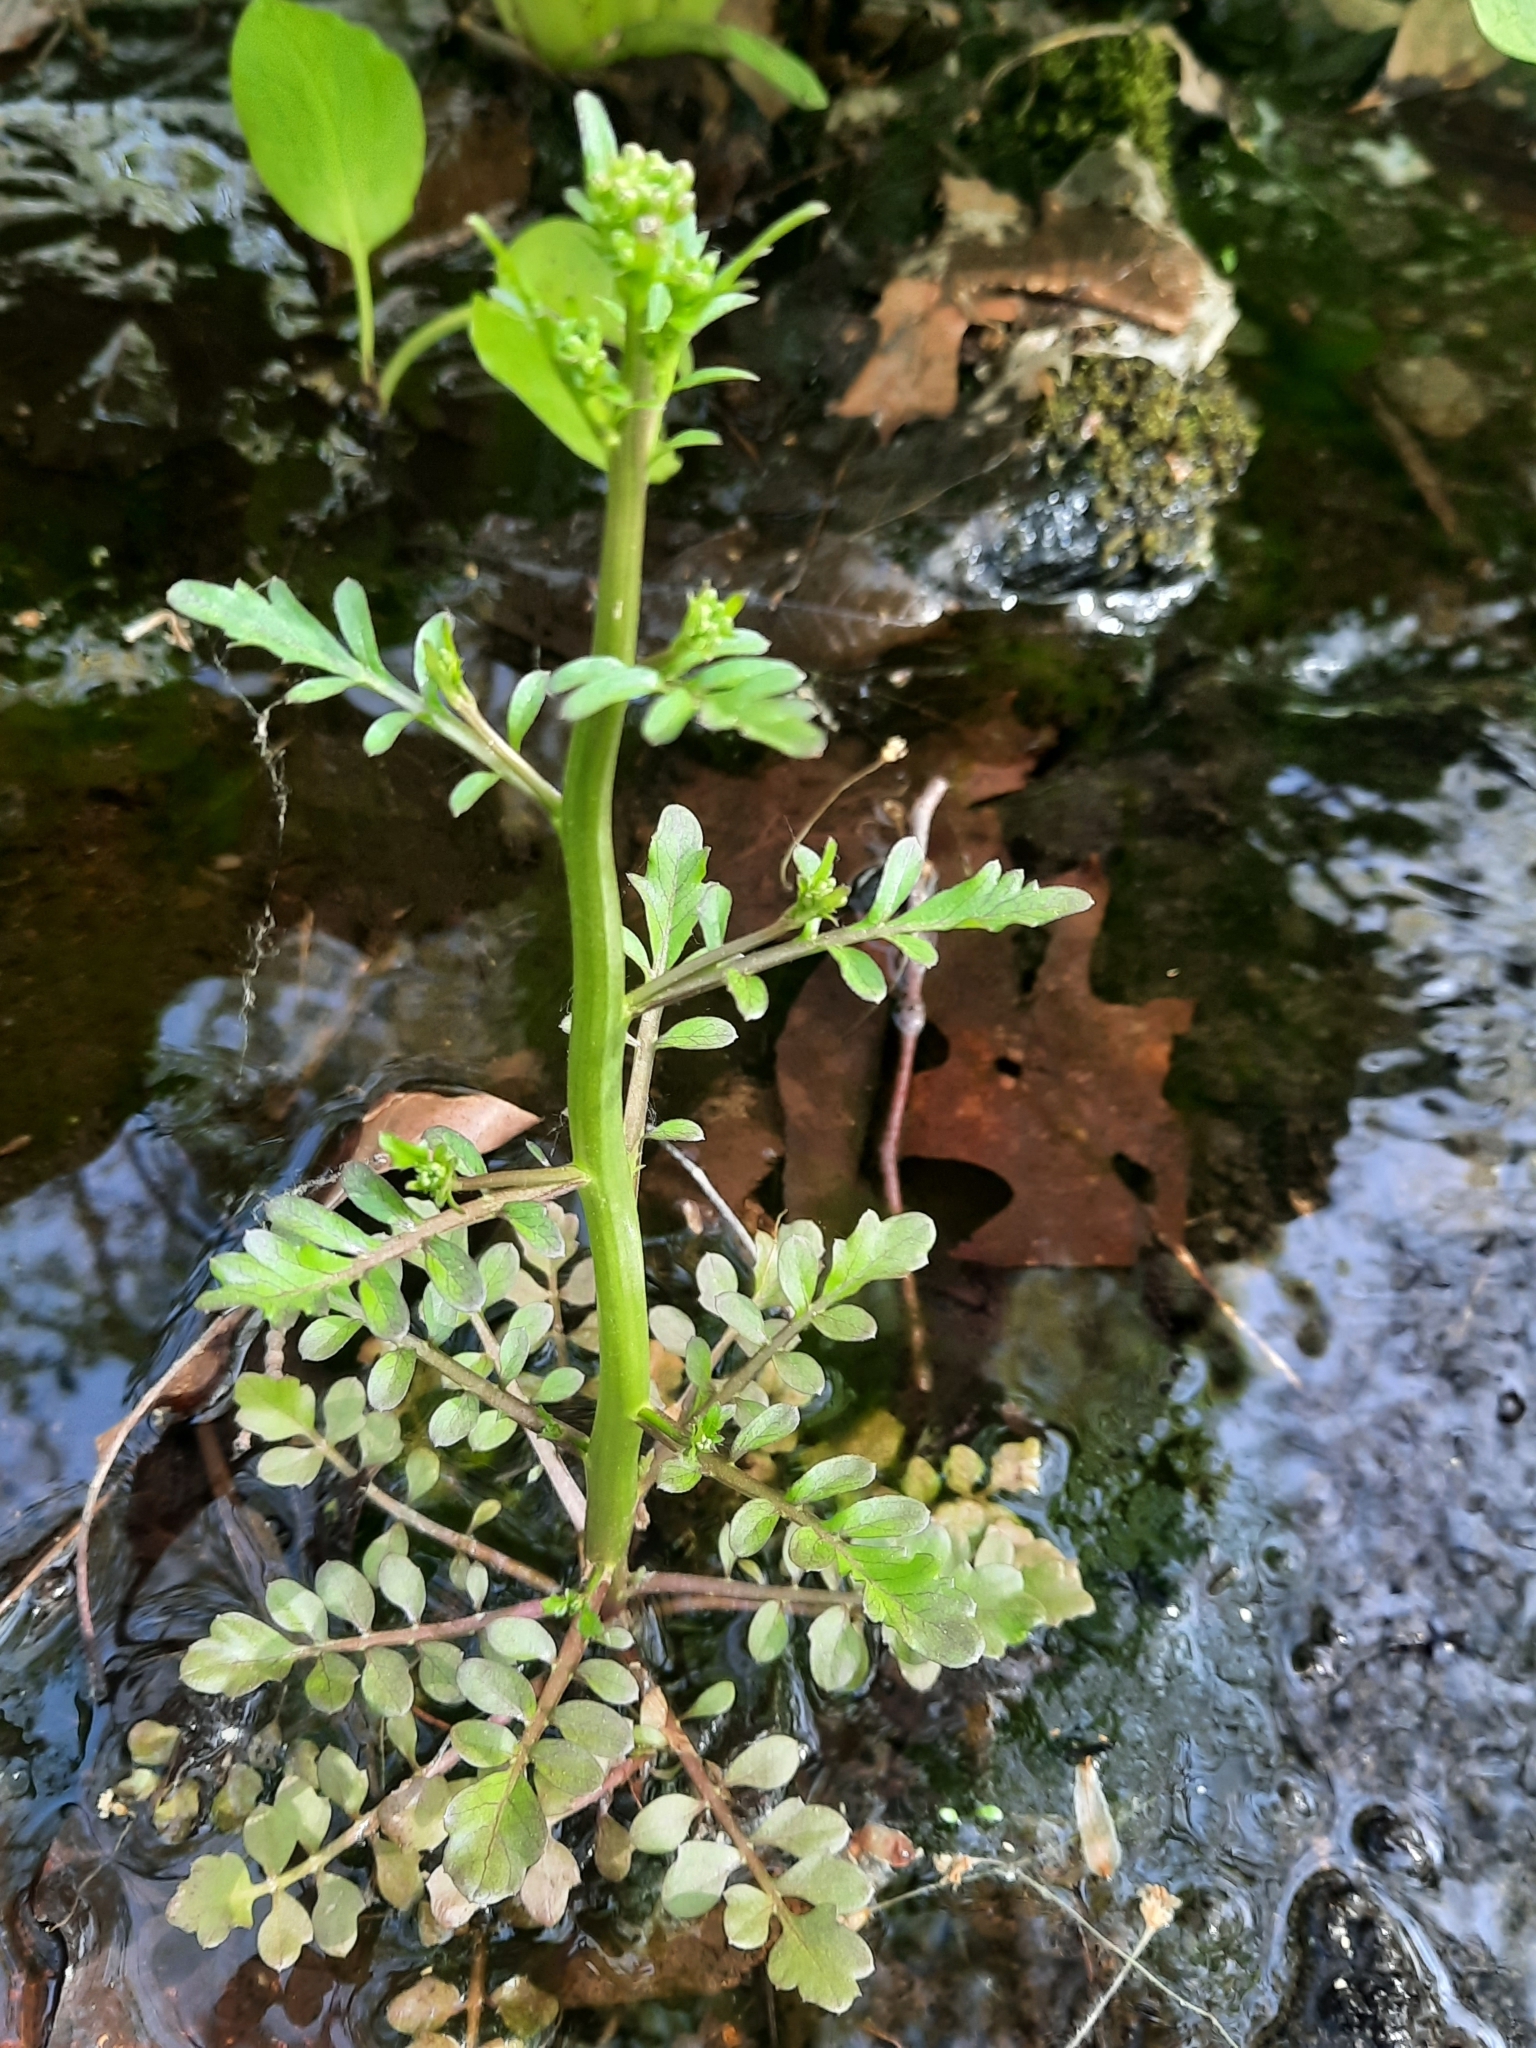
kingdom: Plantae
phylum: Tracheophyta
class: Magnoliopsida
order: Brassicales
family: Brassicaceae
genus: Cardamine
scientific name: Cardamine pensylvanica
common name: Pennsylvania bittercress
